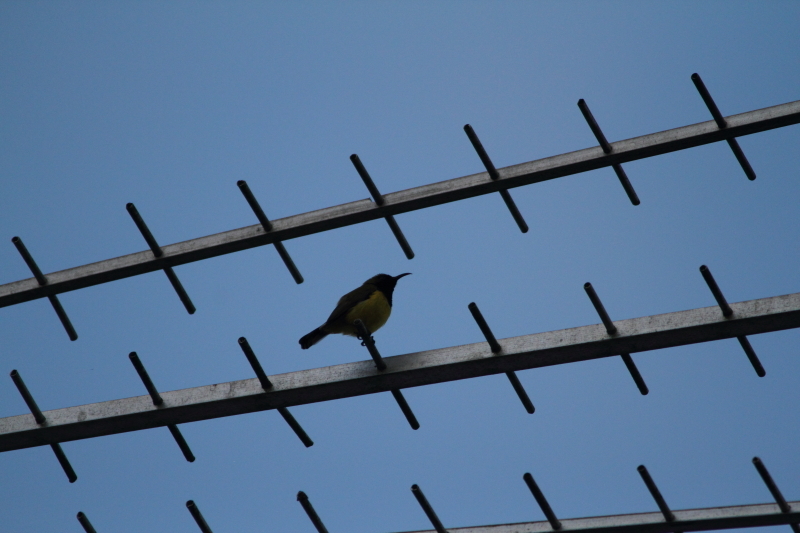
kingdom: Animalia
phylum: Chordata
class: Aves
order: Passeriformes
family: Nectariniidae
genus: Cinnyris
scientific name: Cinnyris
